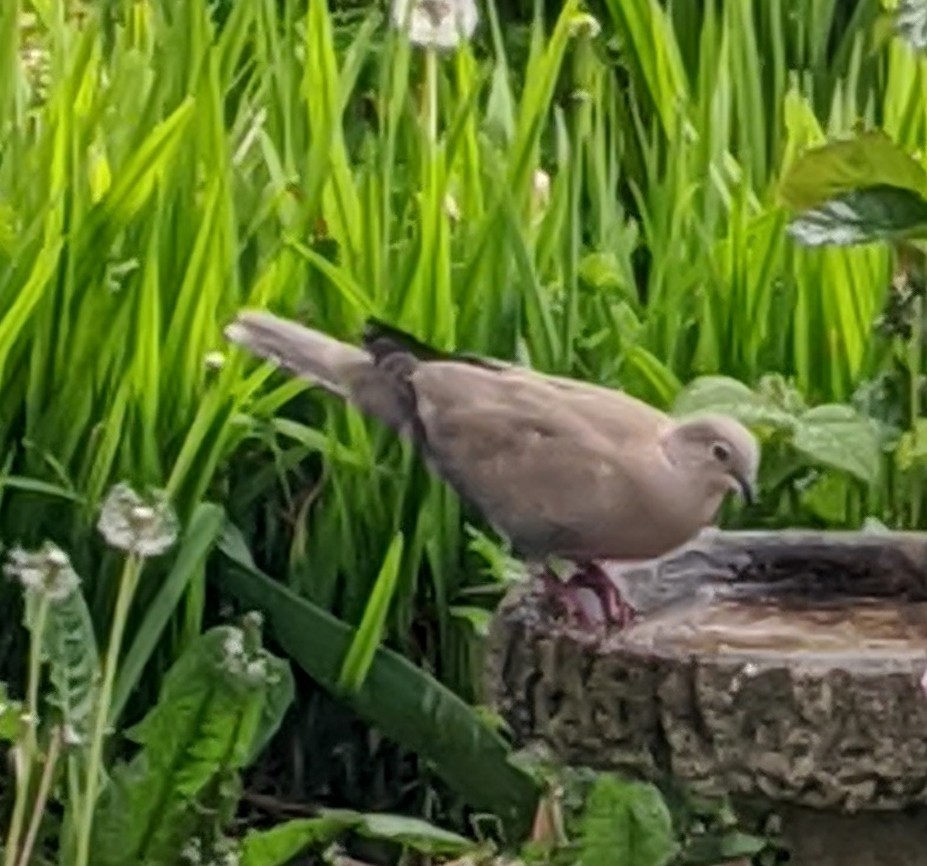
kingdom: Animalia
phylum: Chordata
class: Aves
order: Columbiformes
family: Columbidae
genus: Streptopelia
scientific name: Streptopelia decaocto
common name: Eurasian collared dove
